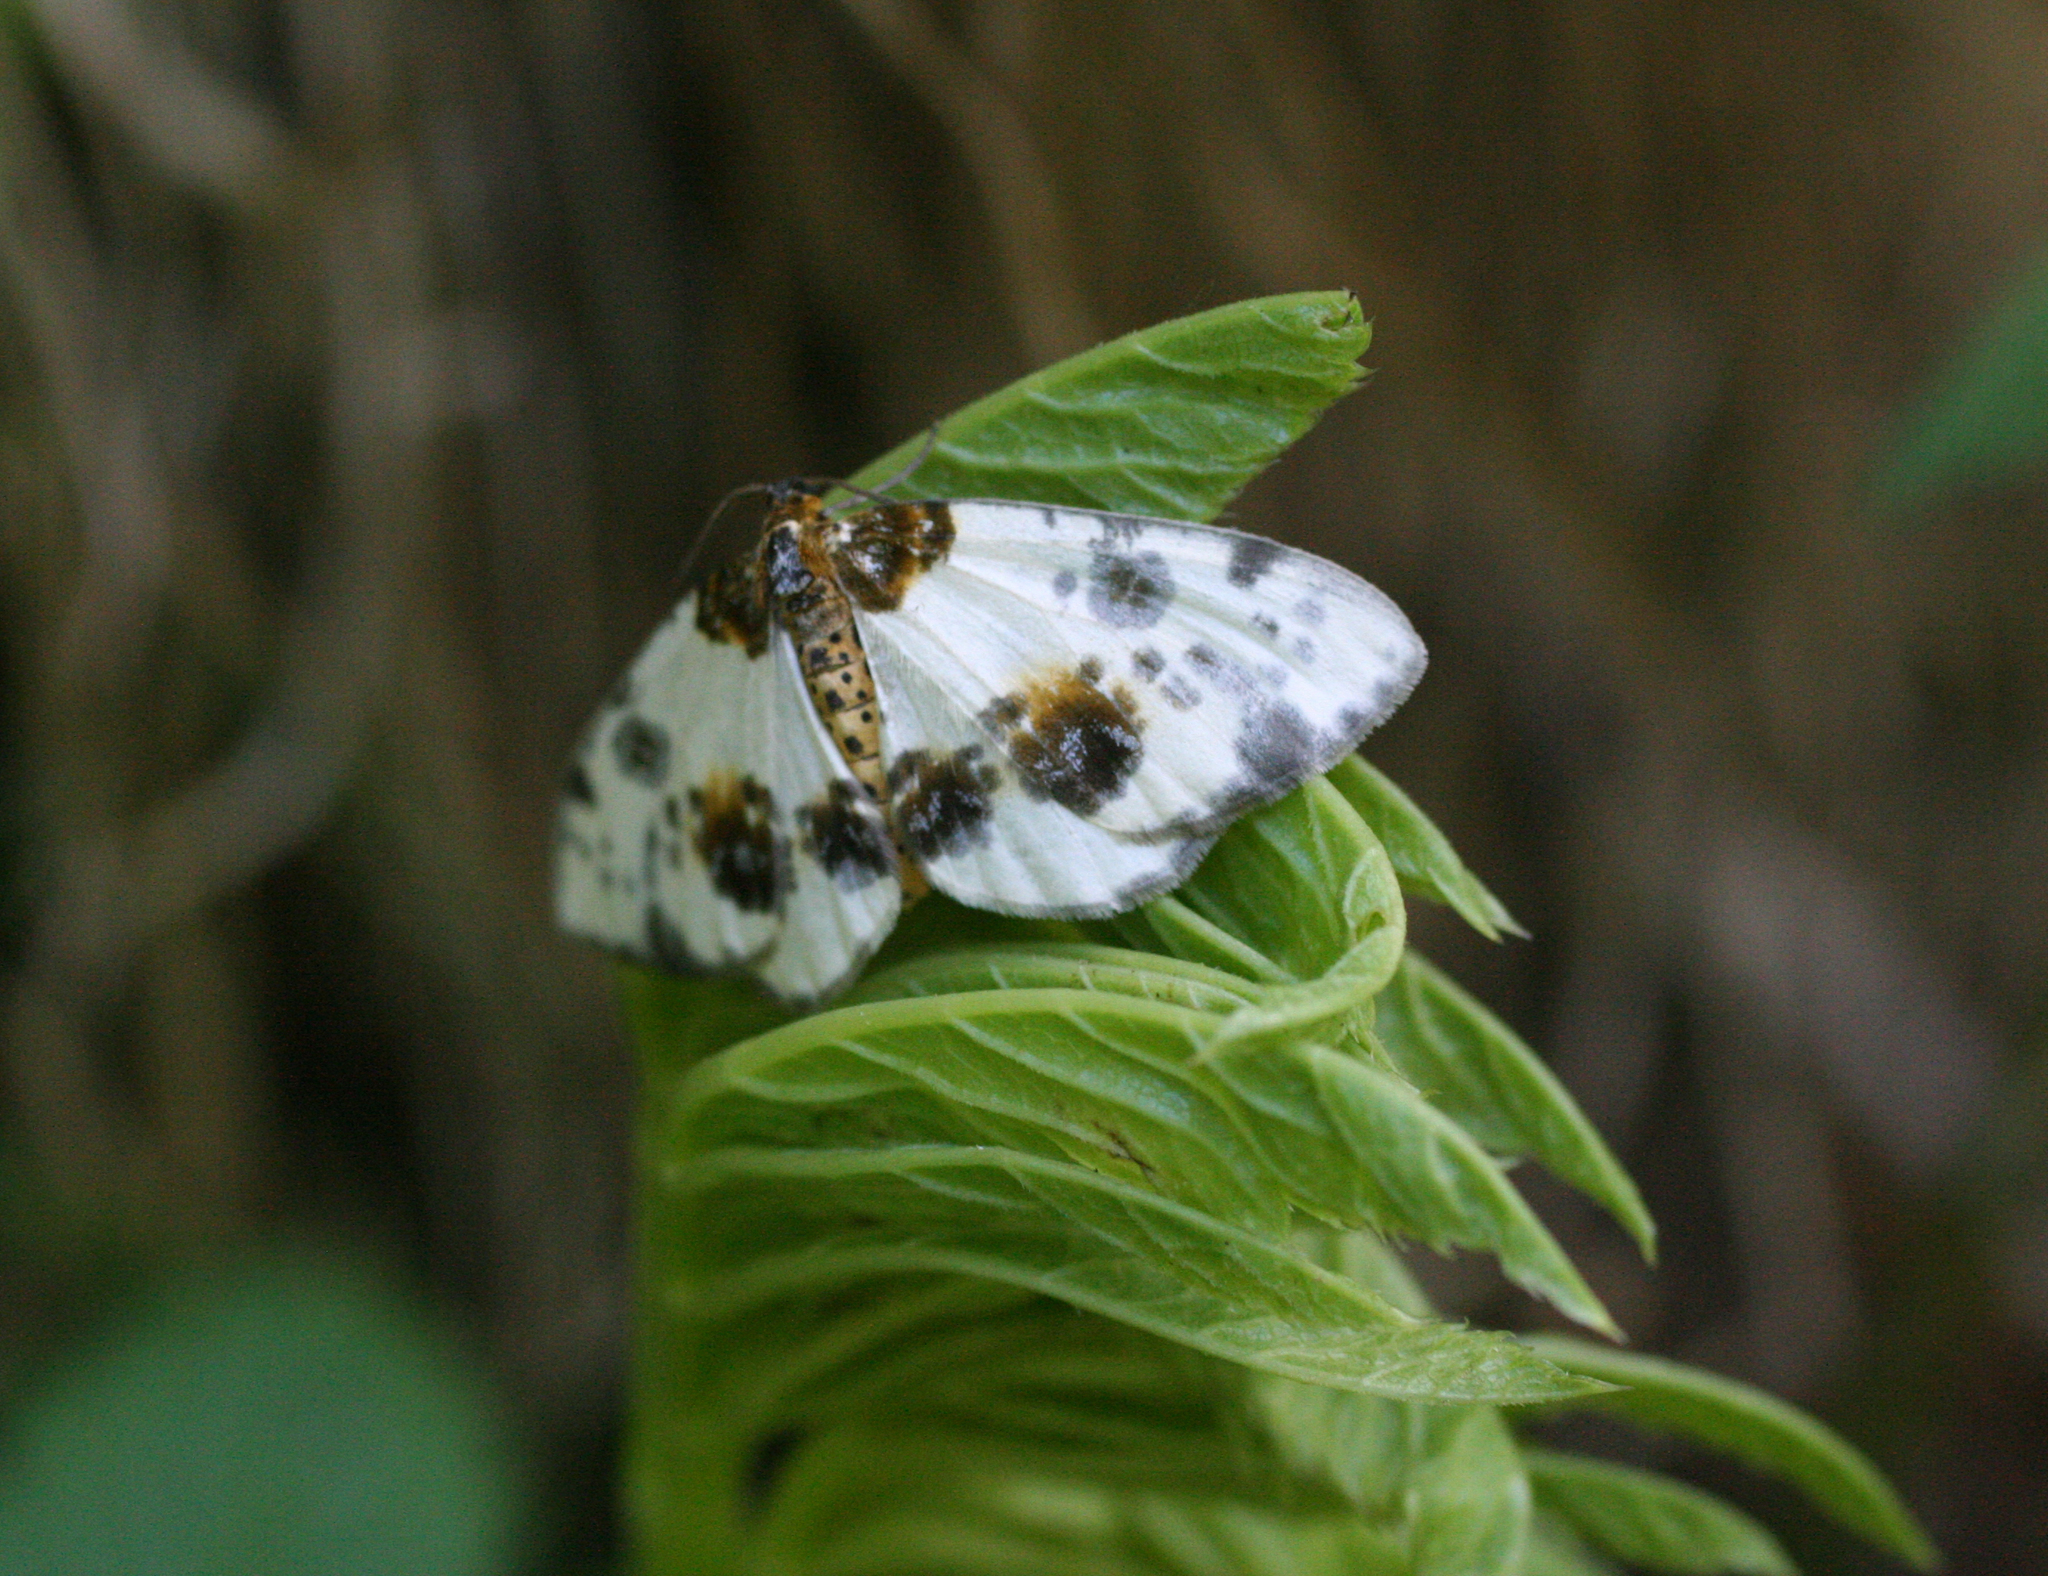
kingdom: Animalia
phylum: Arthropoda
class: Insecta
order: Lepidoptera
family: Geometridae
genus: Abraxas
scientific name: Abraxas sylvata
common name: Clouded magpie
